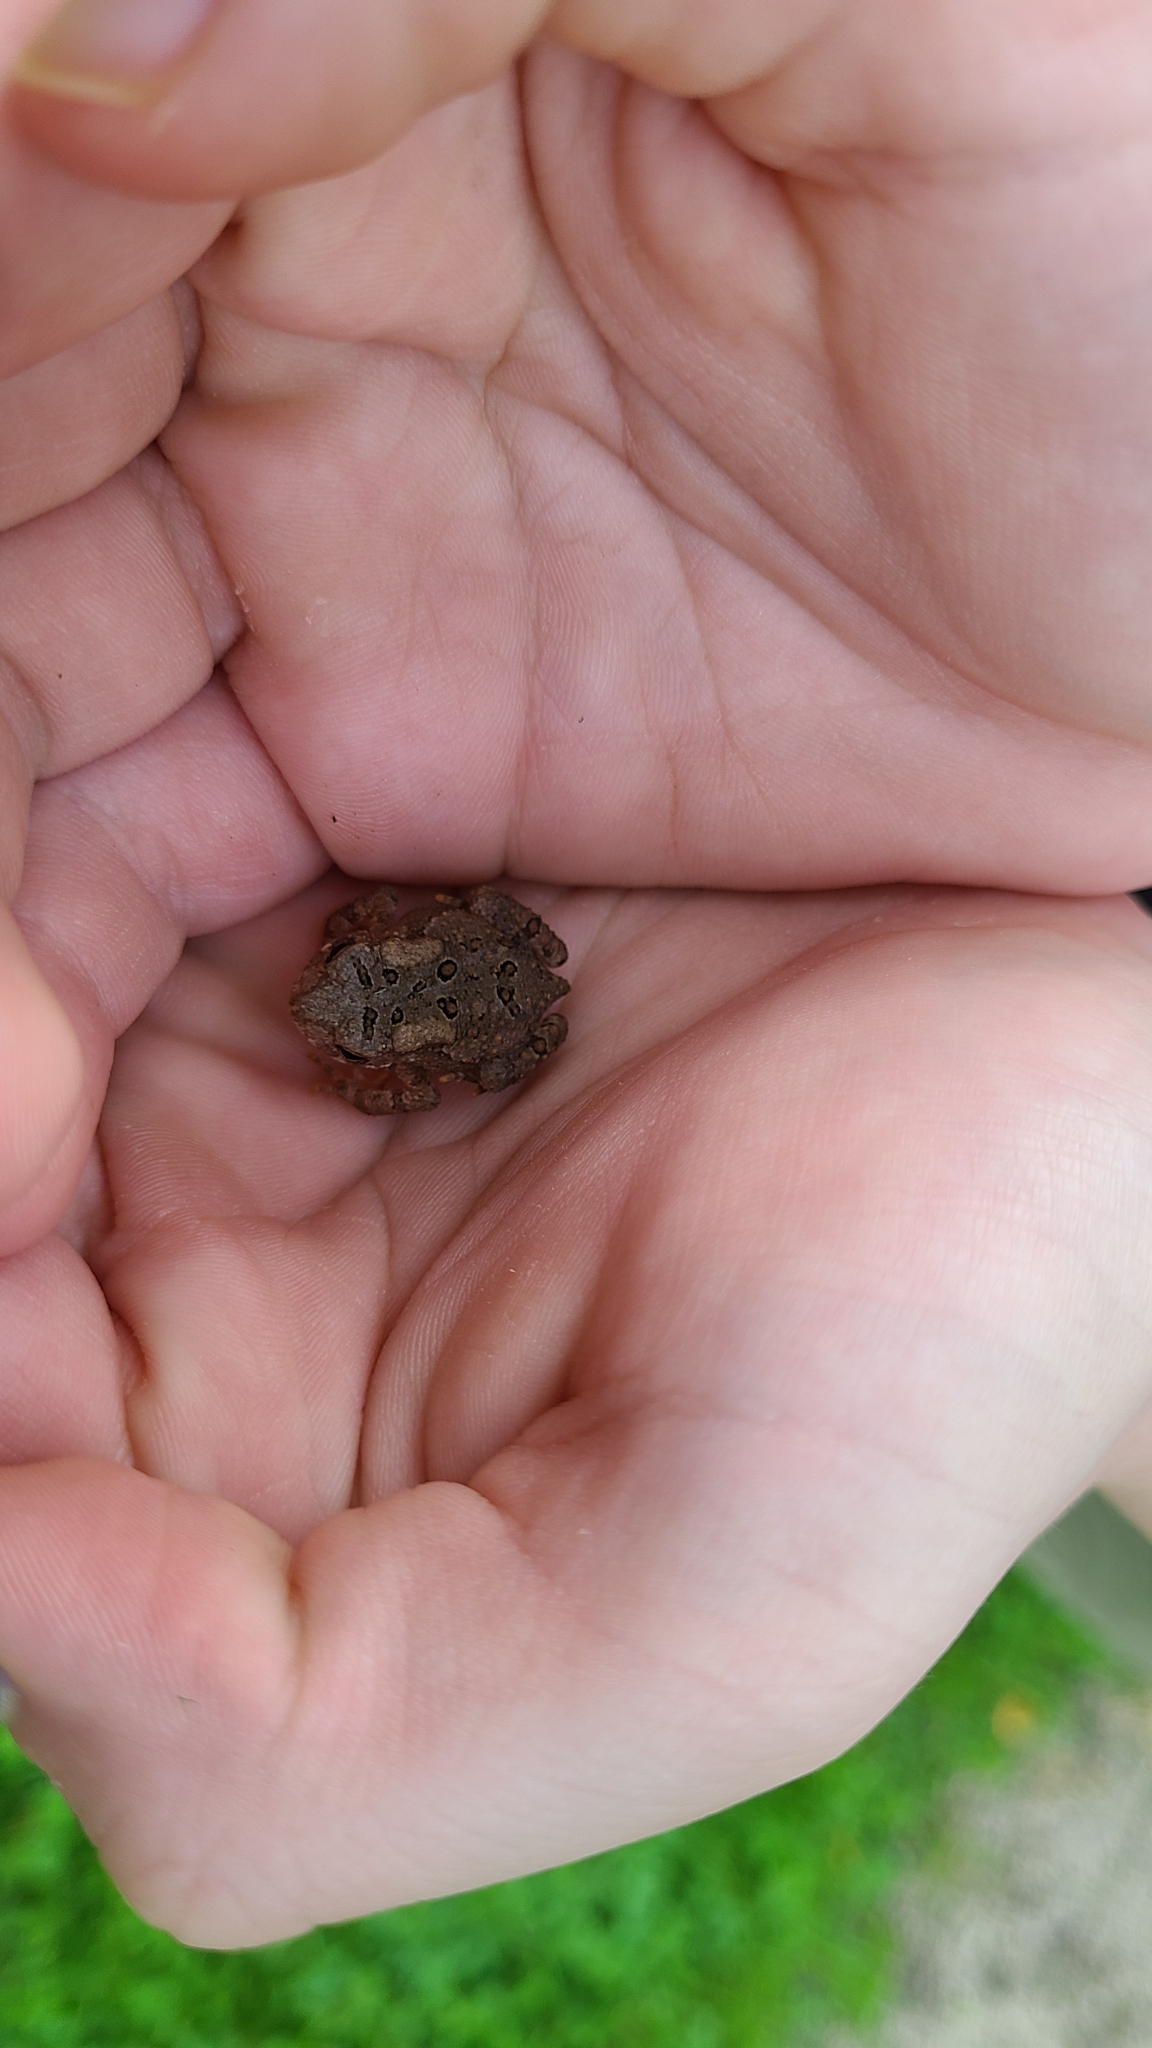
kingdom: Animalia
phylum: Chordata
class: Amphibia
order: Anura
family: Bufonidae
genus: Anaxyrus
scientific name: Anaxyrus americanus
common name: American toad
